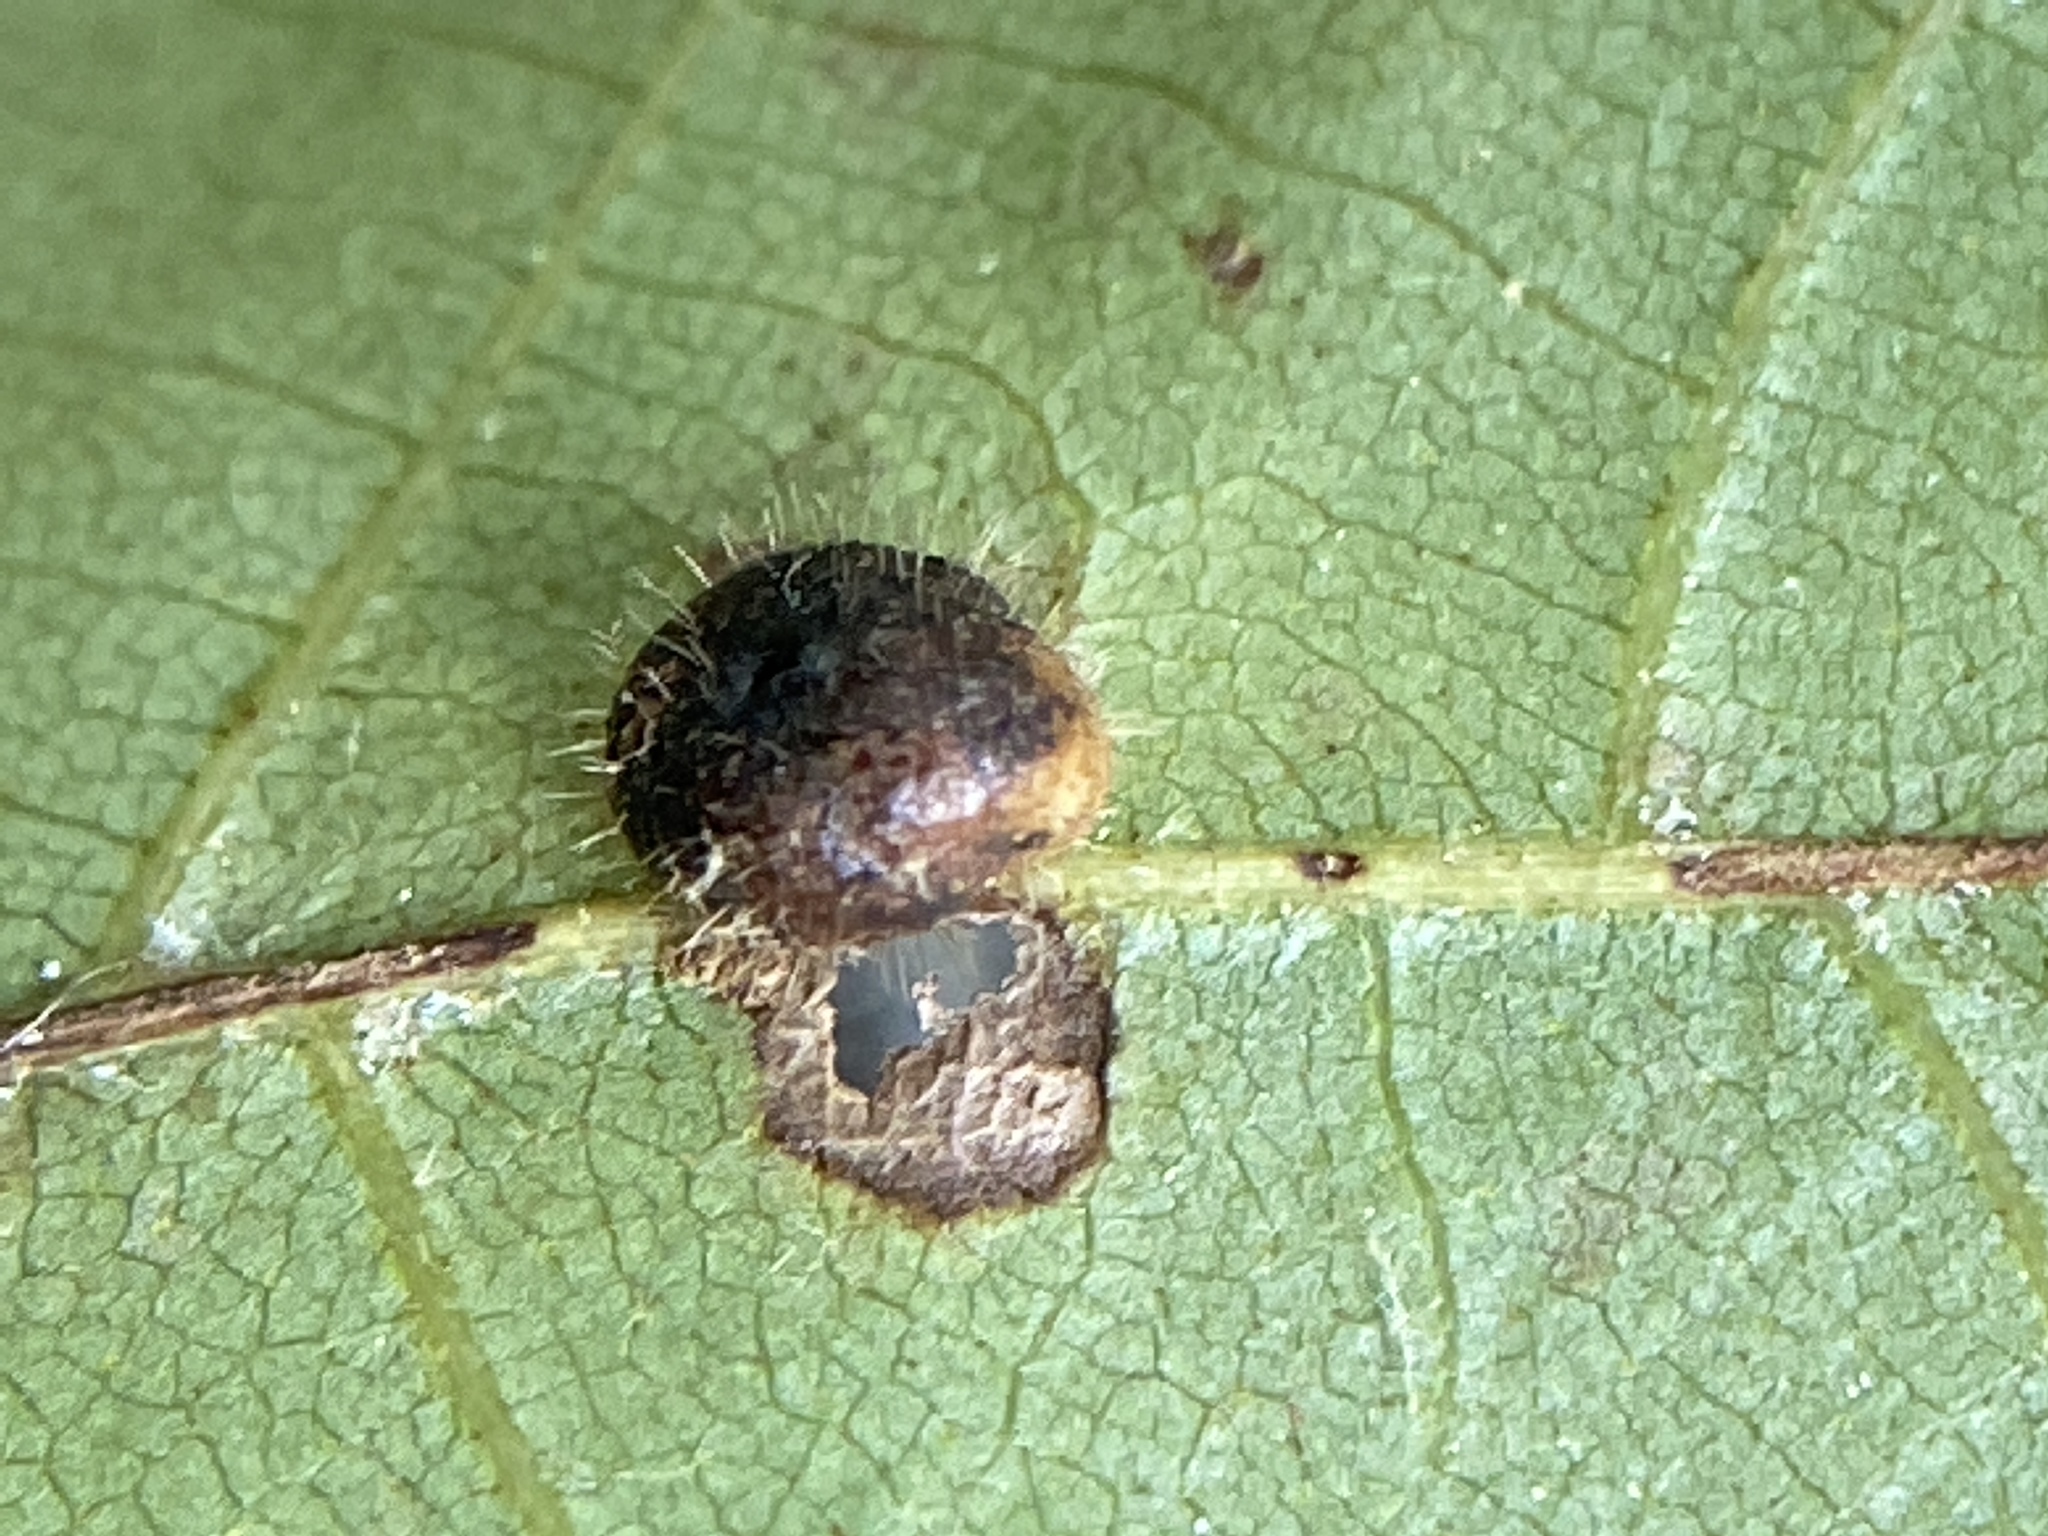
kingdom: Animalia
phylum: Arthropoda
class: Insecta
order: Diptera
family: Cecidomyiidae
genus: Caryomyia
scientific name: Caryomyia thompsoni
